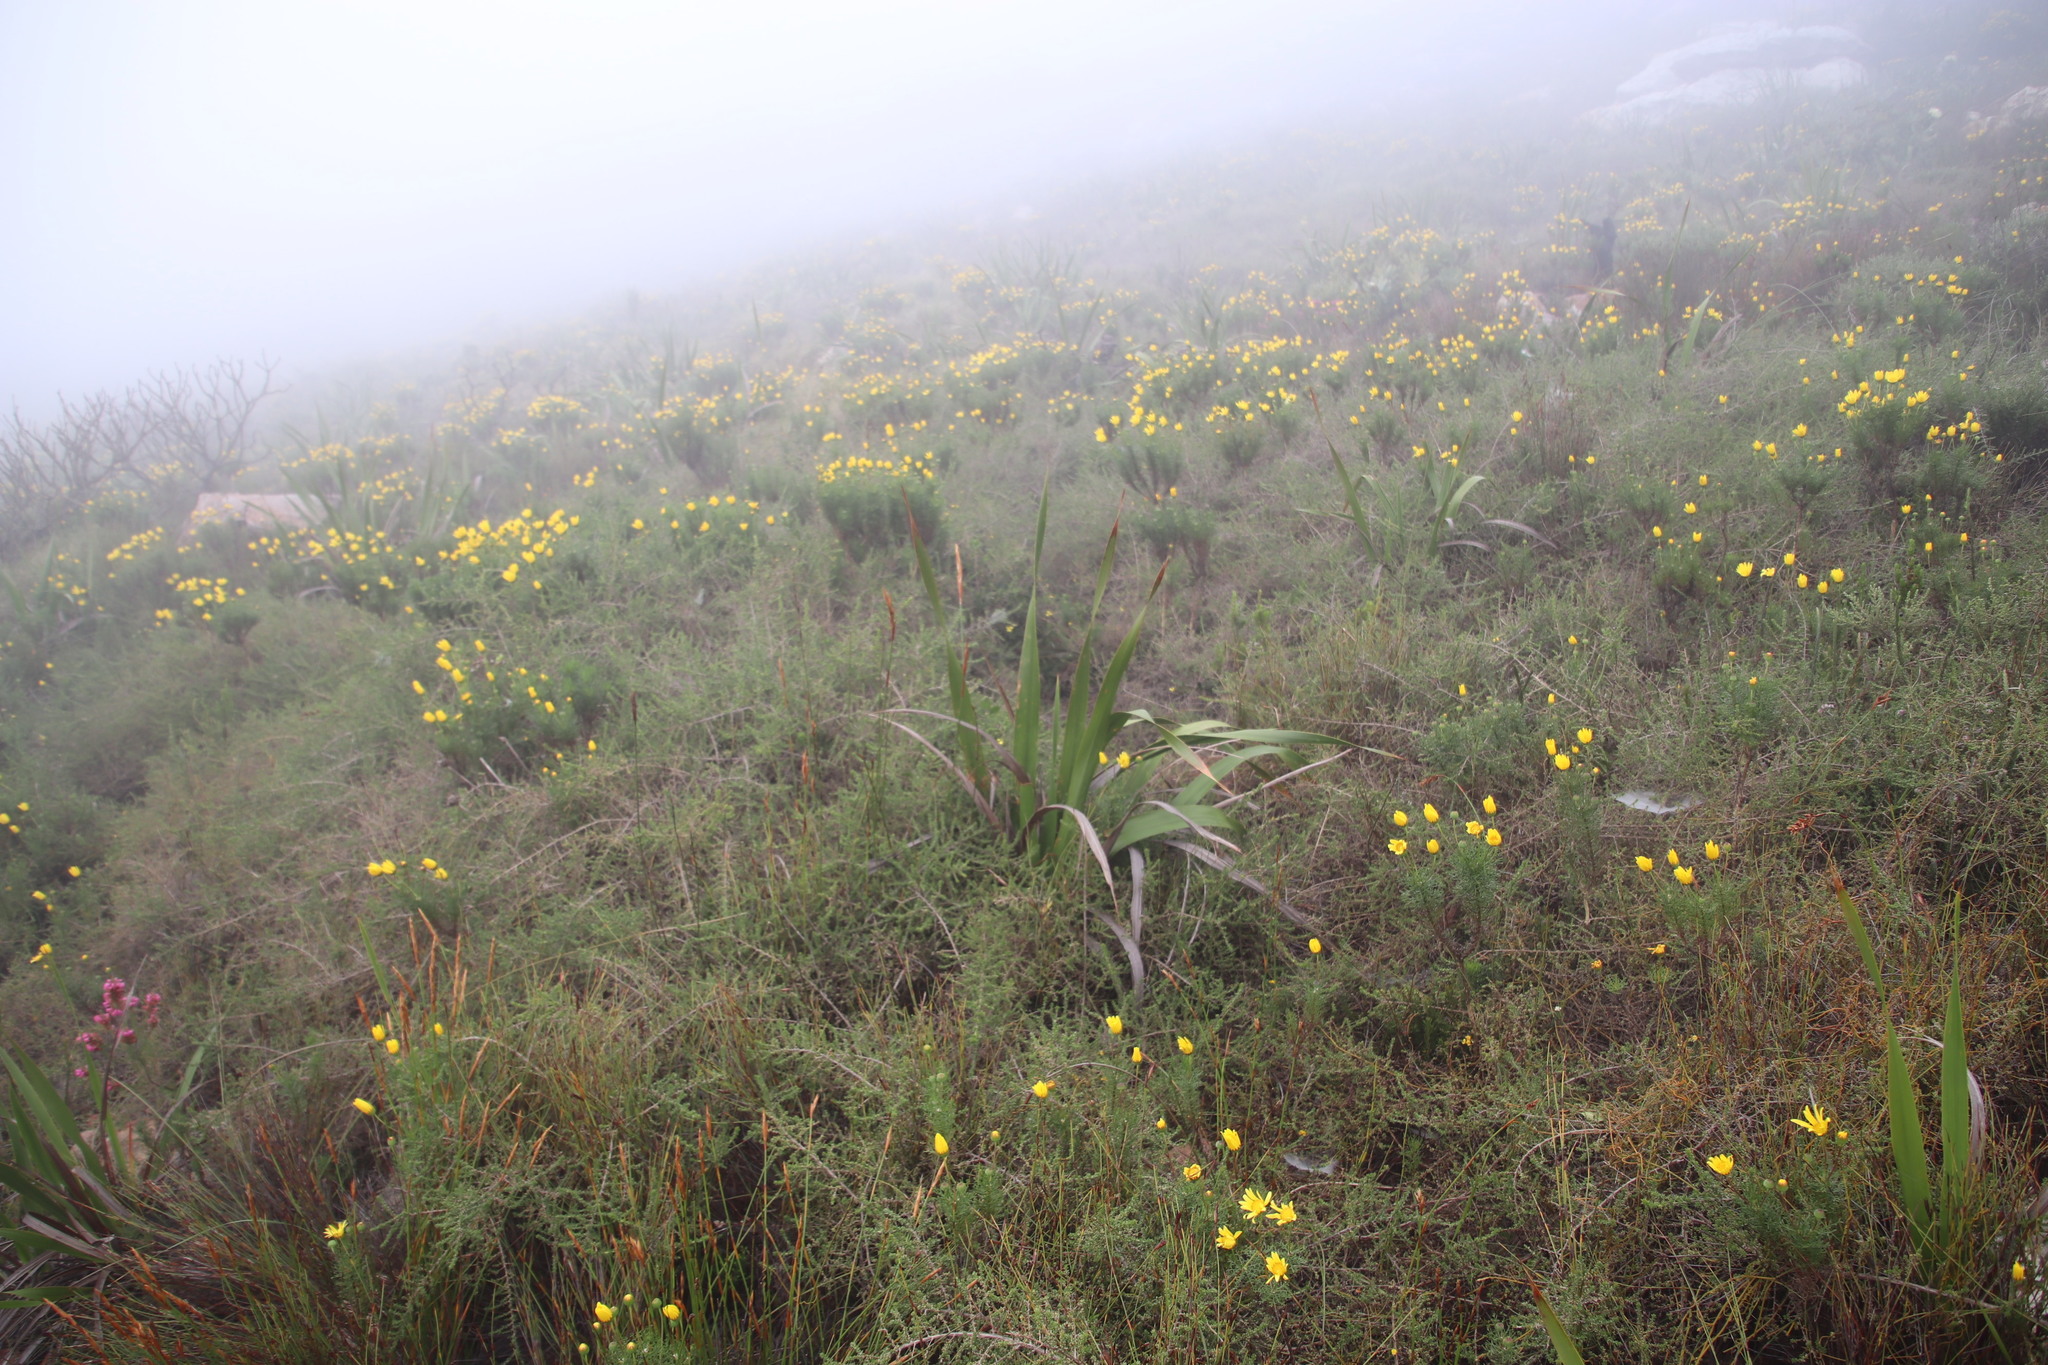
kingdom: Plantae
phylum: Tracheophyta
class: Magnoliopsida
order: Asterales
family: Asteraceae
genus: Euryops
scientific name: Euryops abrotanifolius
